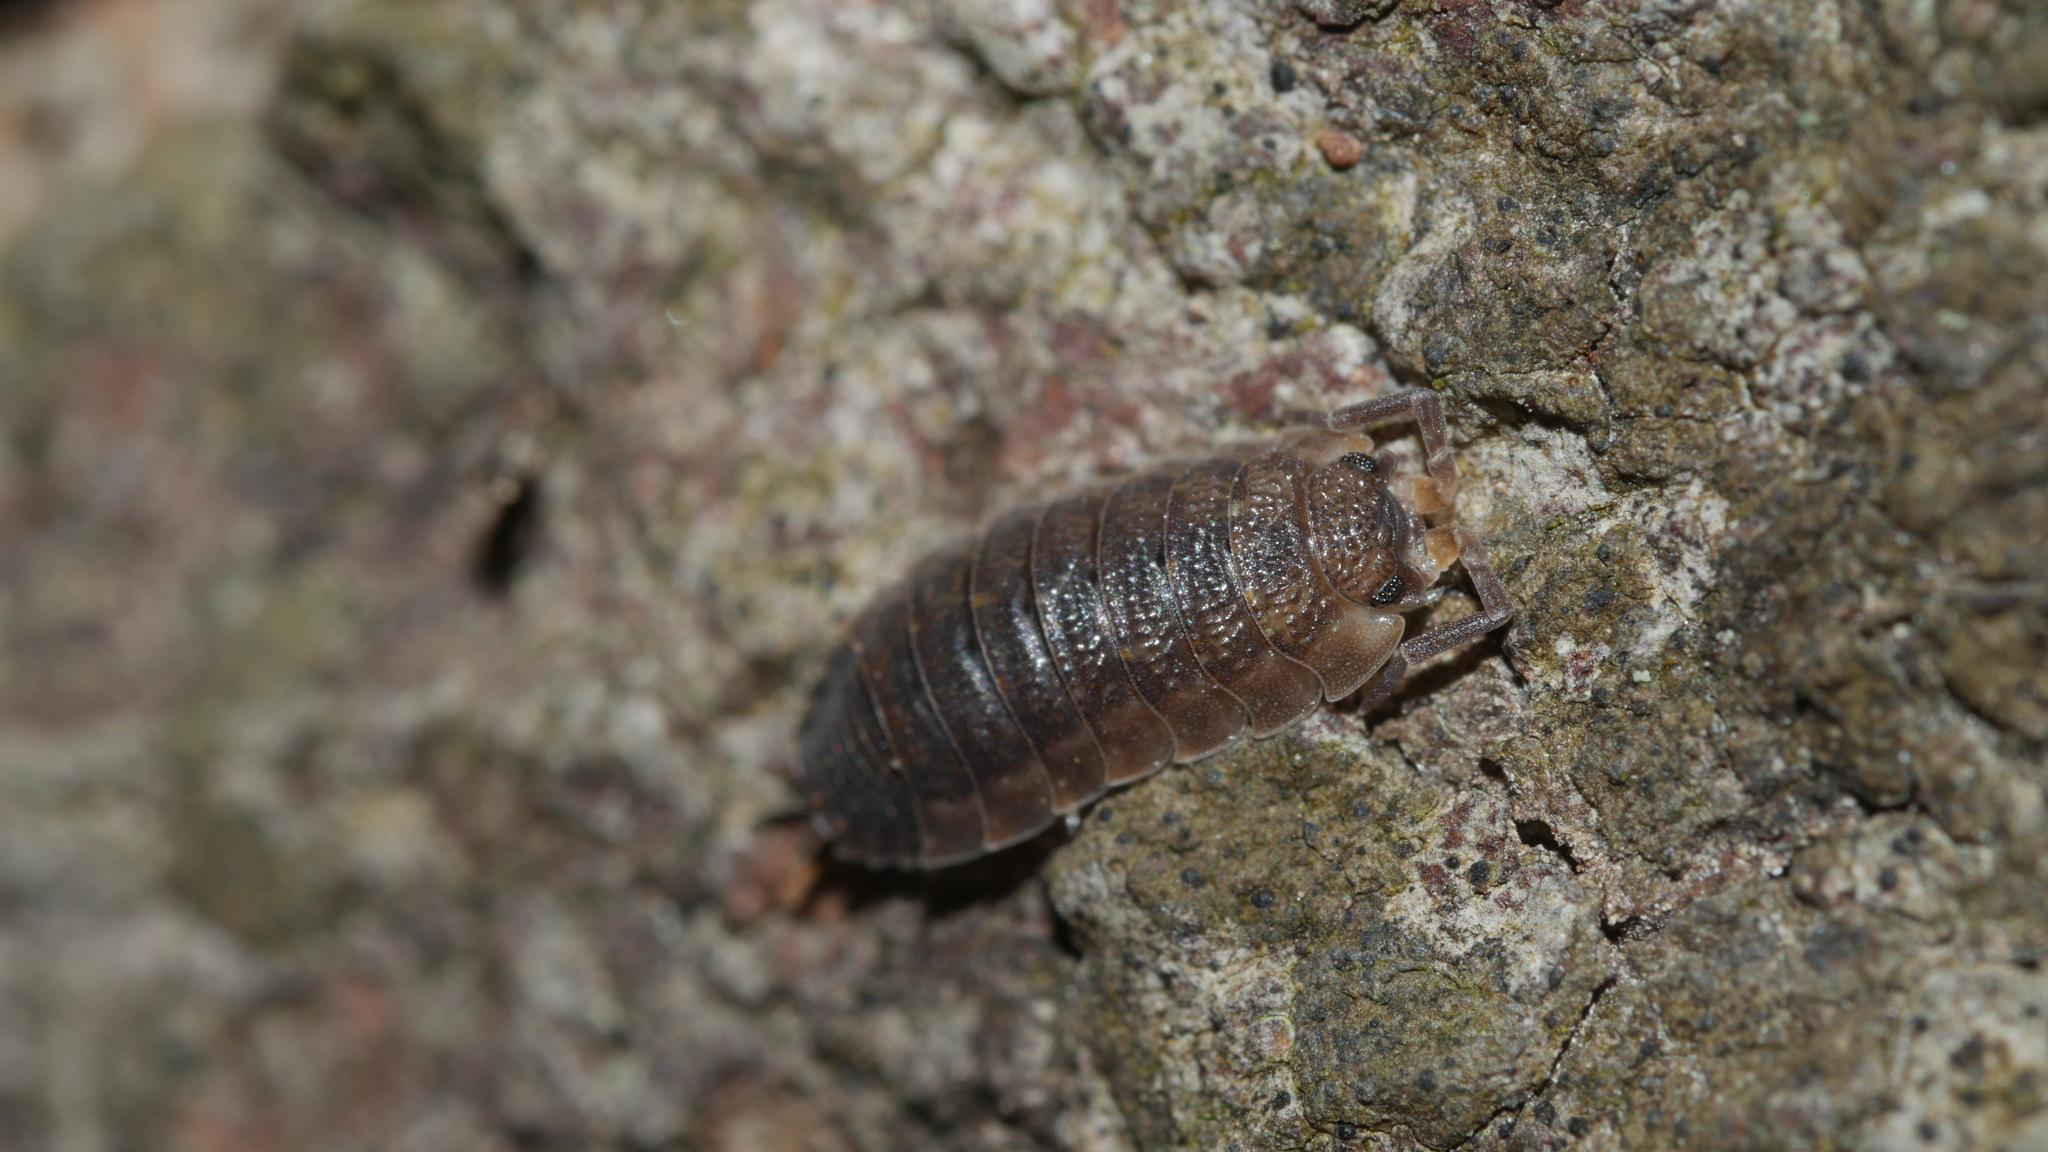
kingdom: Animalia
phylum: Arthropoda
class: Malacostraca
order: Isopoda
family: Porcellionidae
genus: Porcellio
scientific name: Porcellio scaber
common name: Common rough woodlouse
